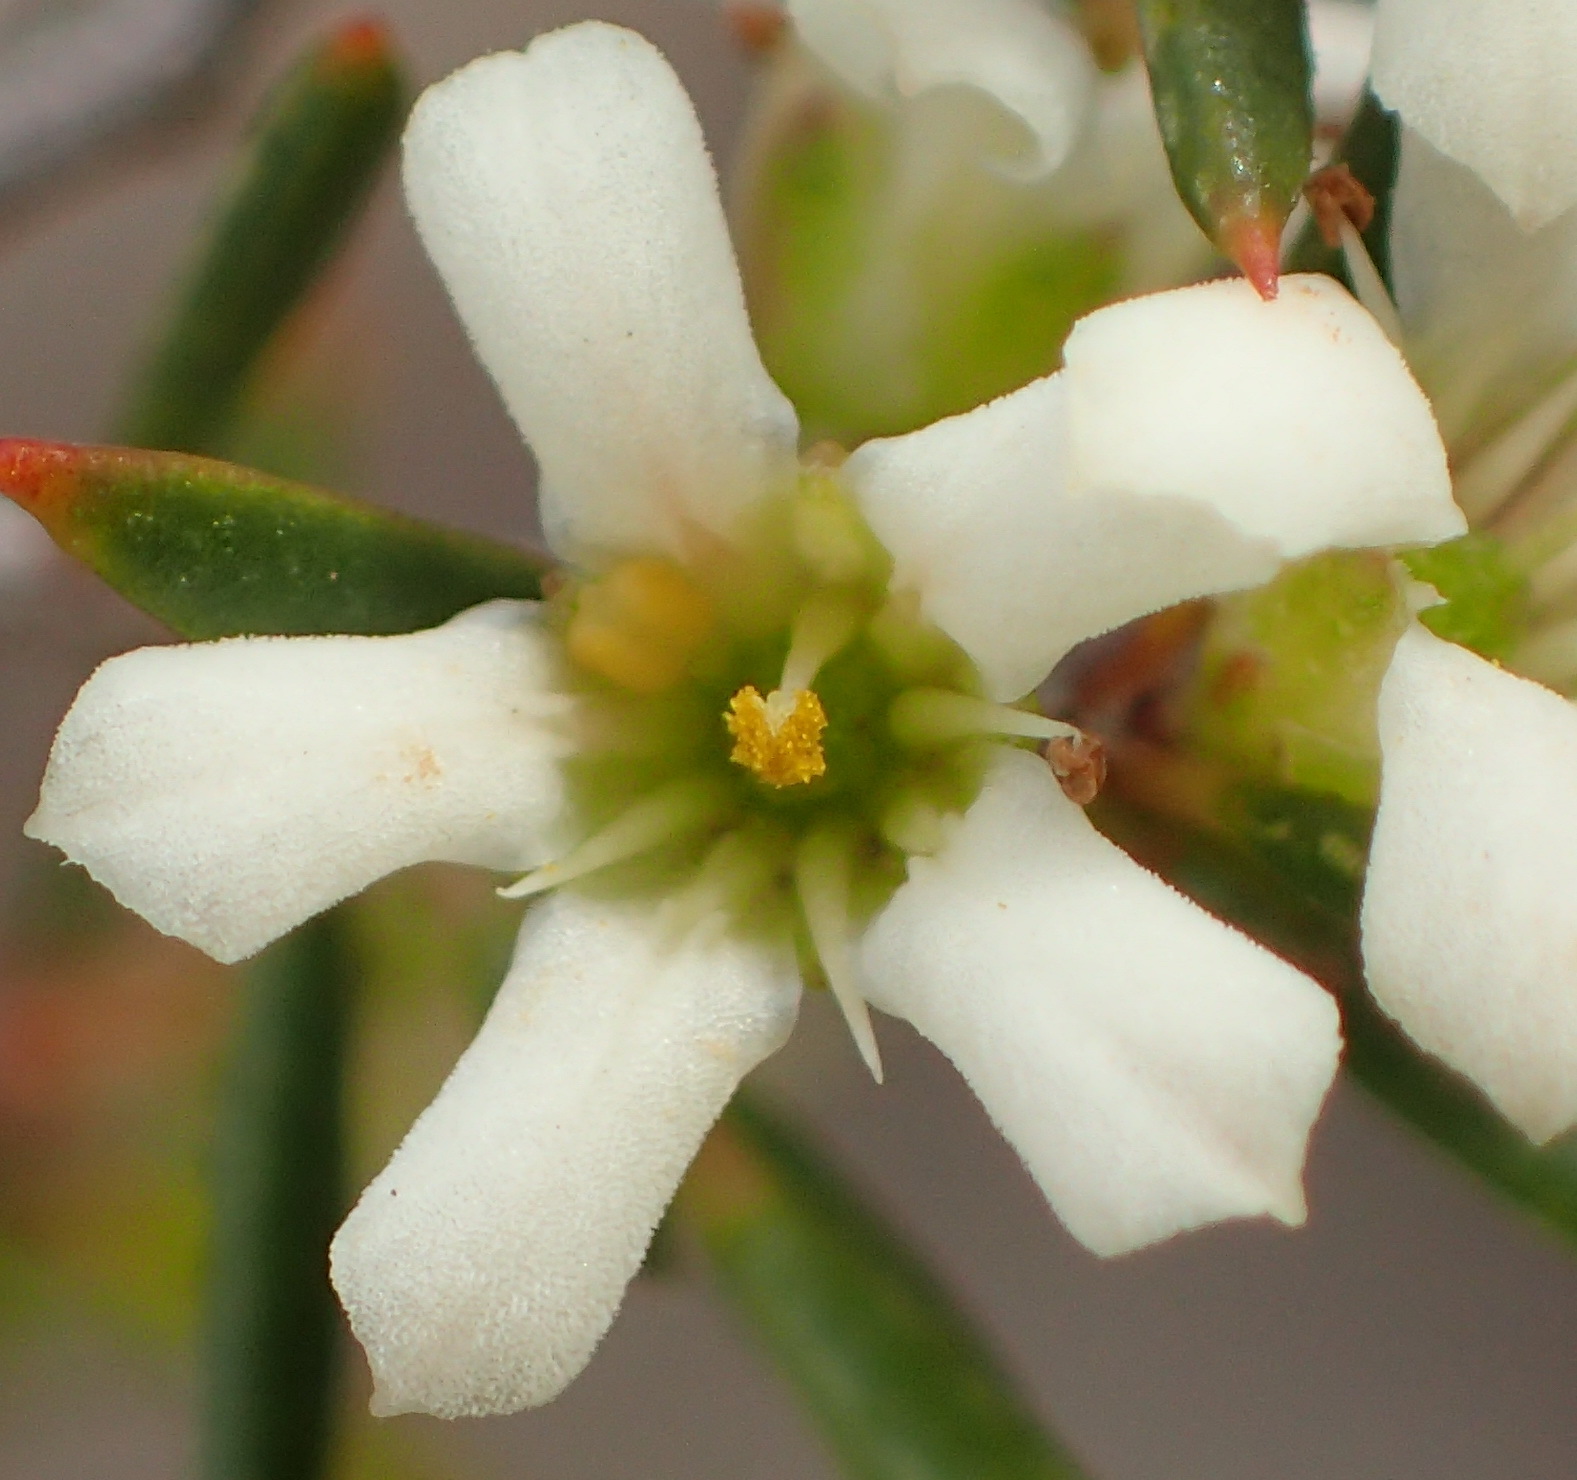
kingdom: Plantae
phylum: Tracheophyta
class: Magnoliopsida
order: Sapindales
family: Rutaceae
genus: Coleonema
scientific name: Coleonema juniperinum
